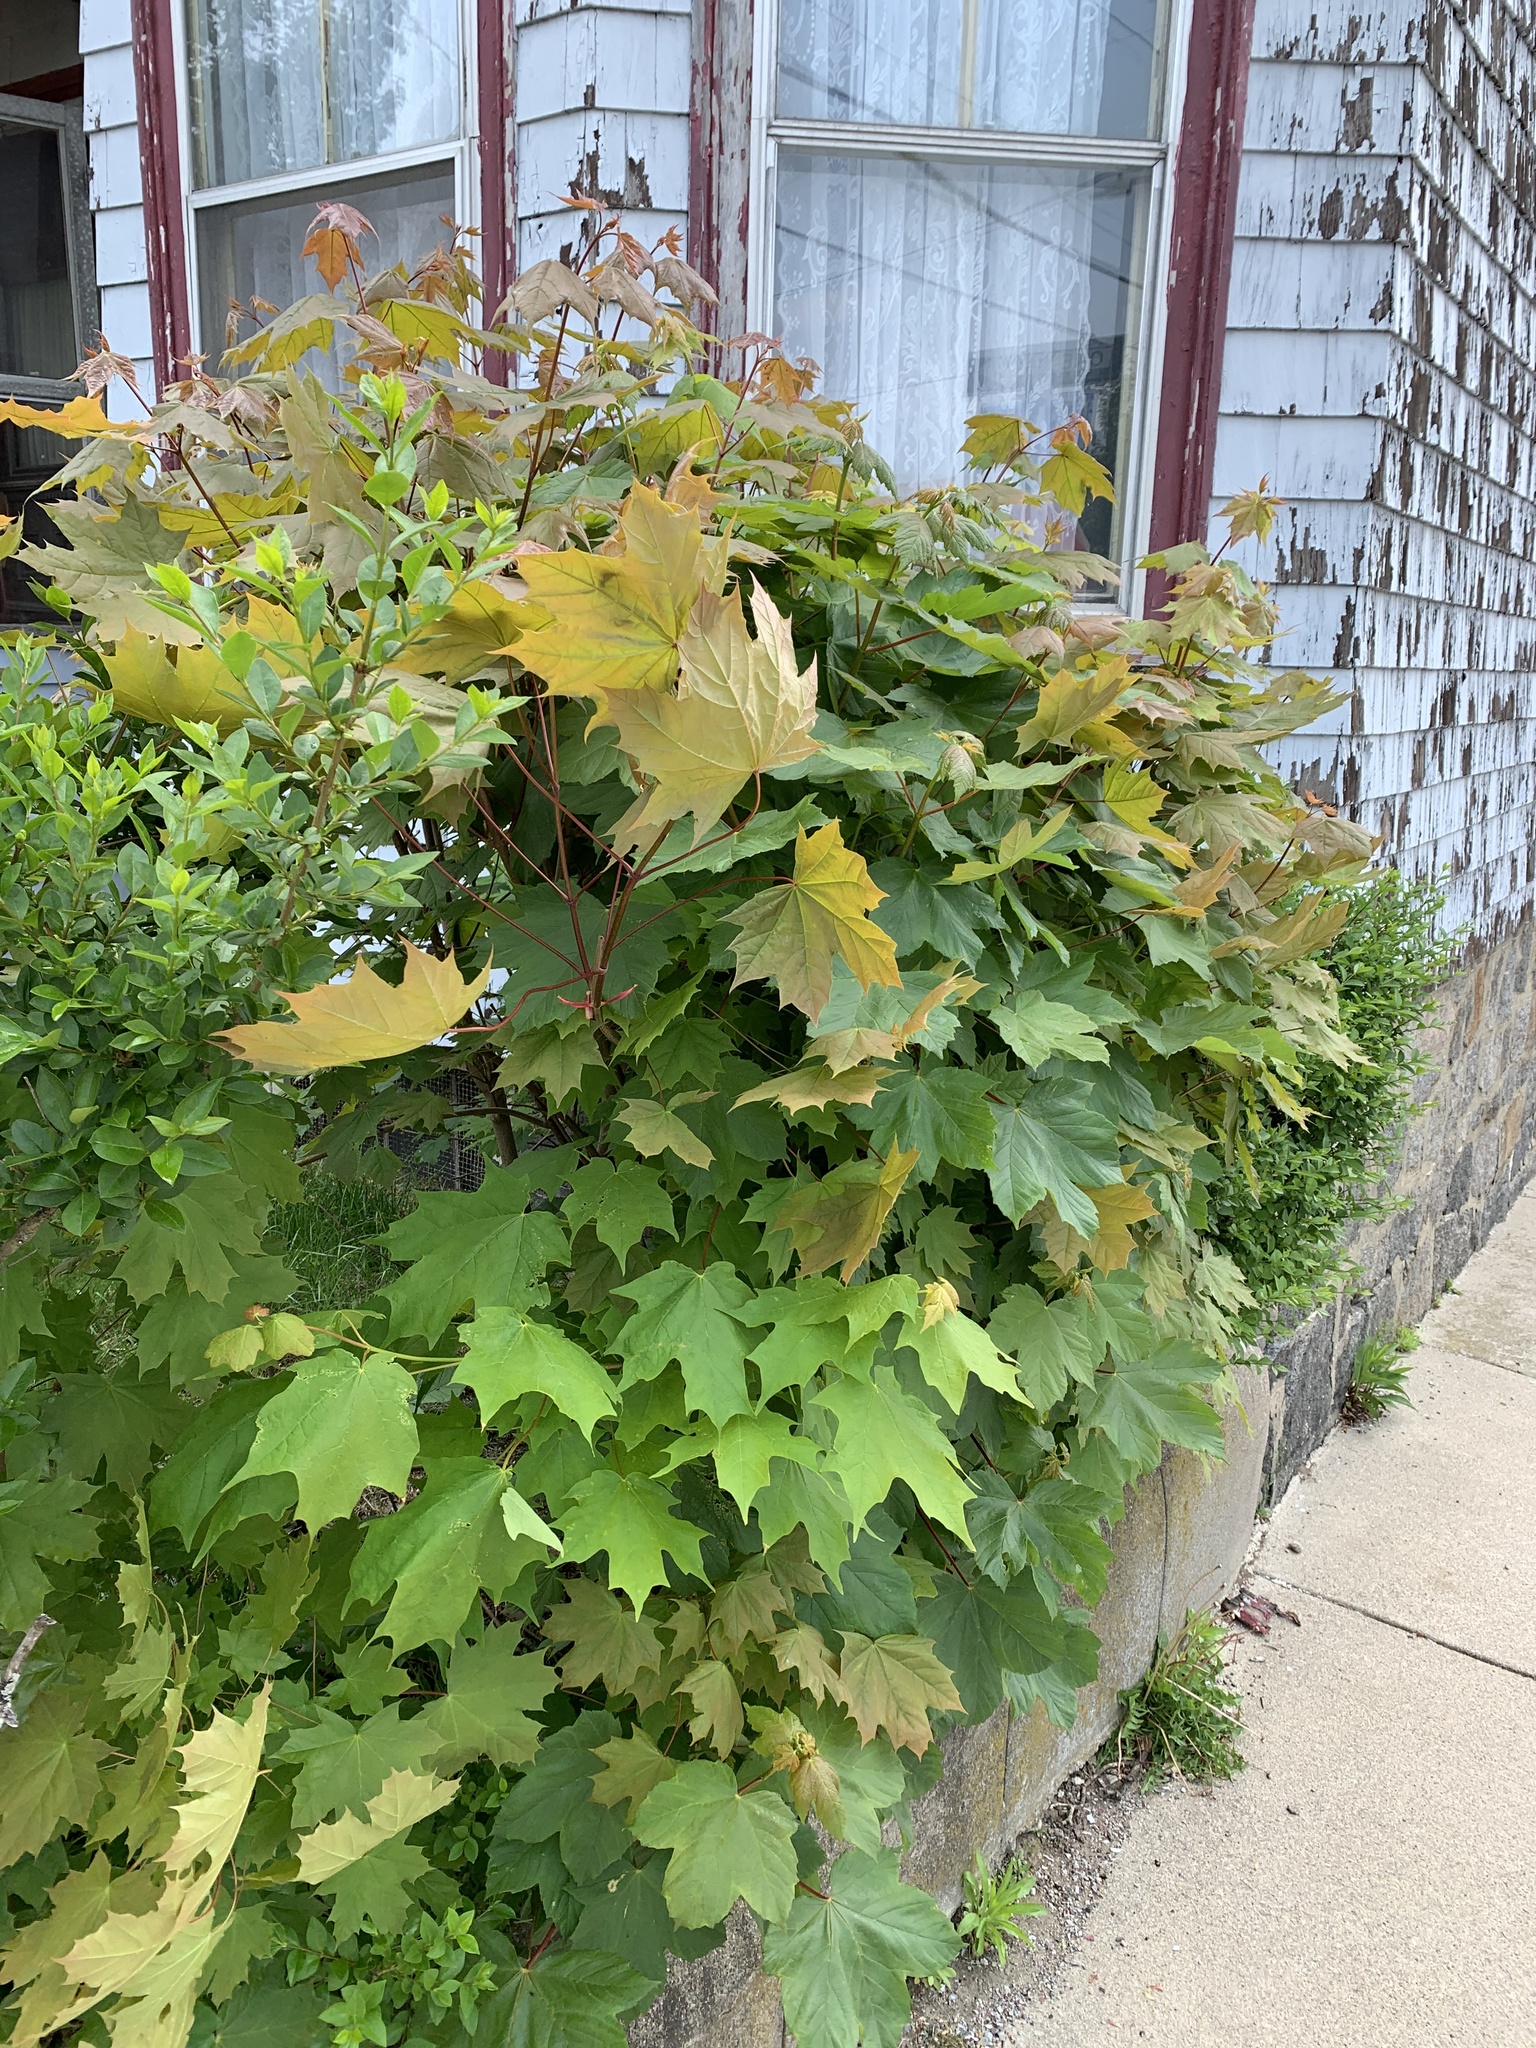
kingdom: Plantae
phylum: Tracheophyta
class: Magnoliopsida
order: Sapindales
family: Sapindaceae
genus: Acer
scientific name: Acer platanoides
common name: Norway maple
